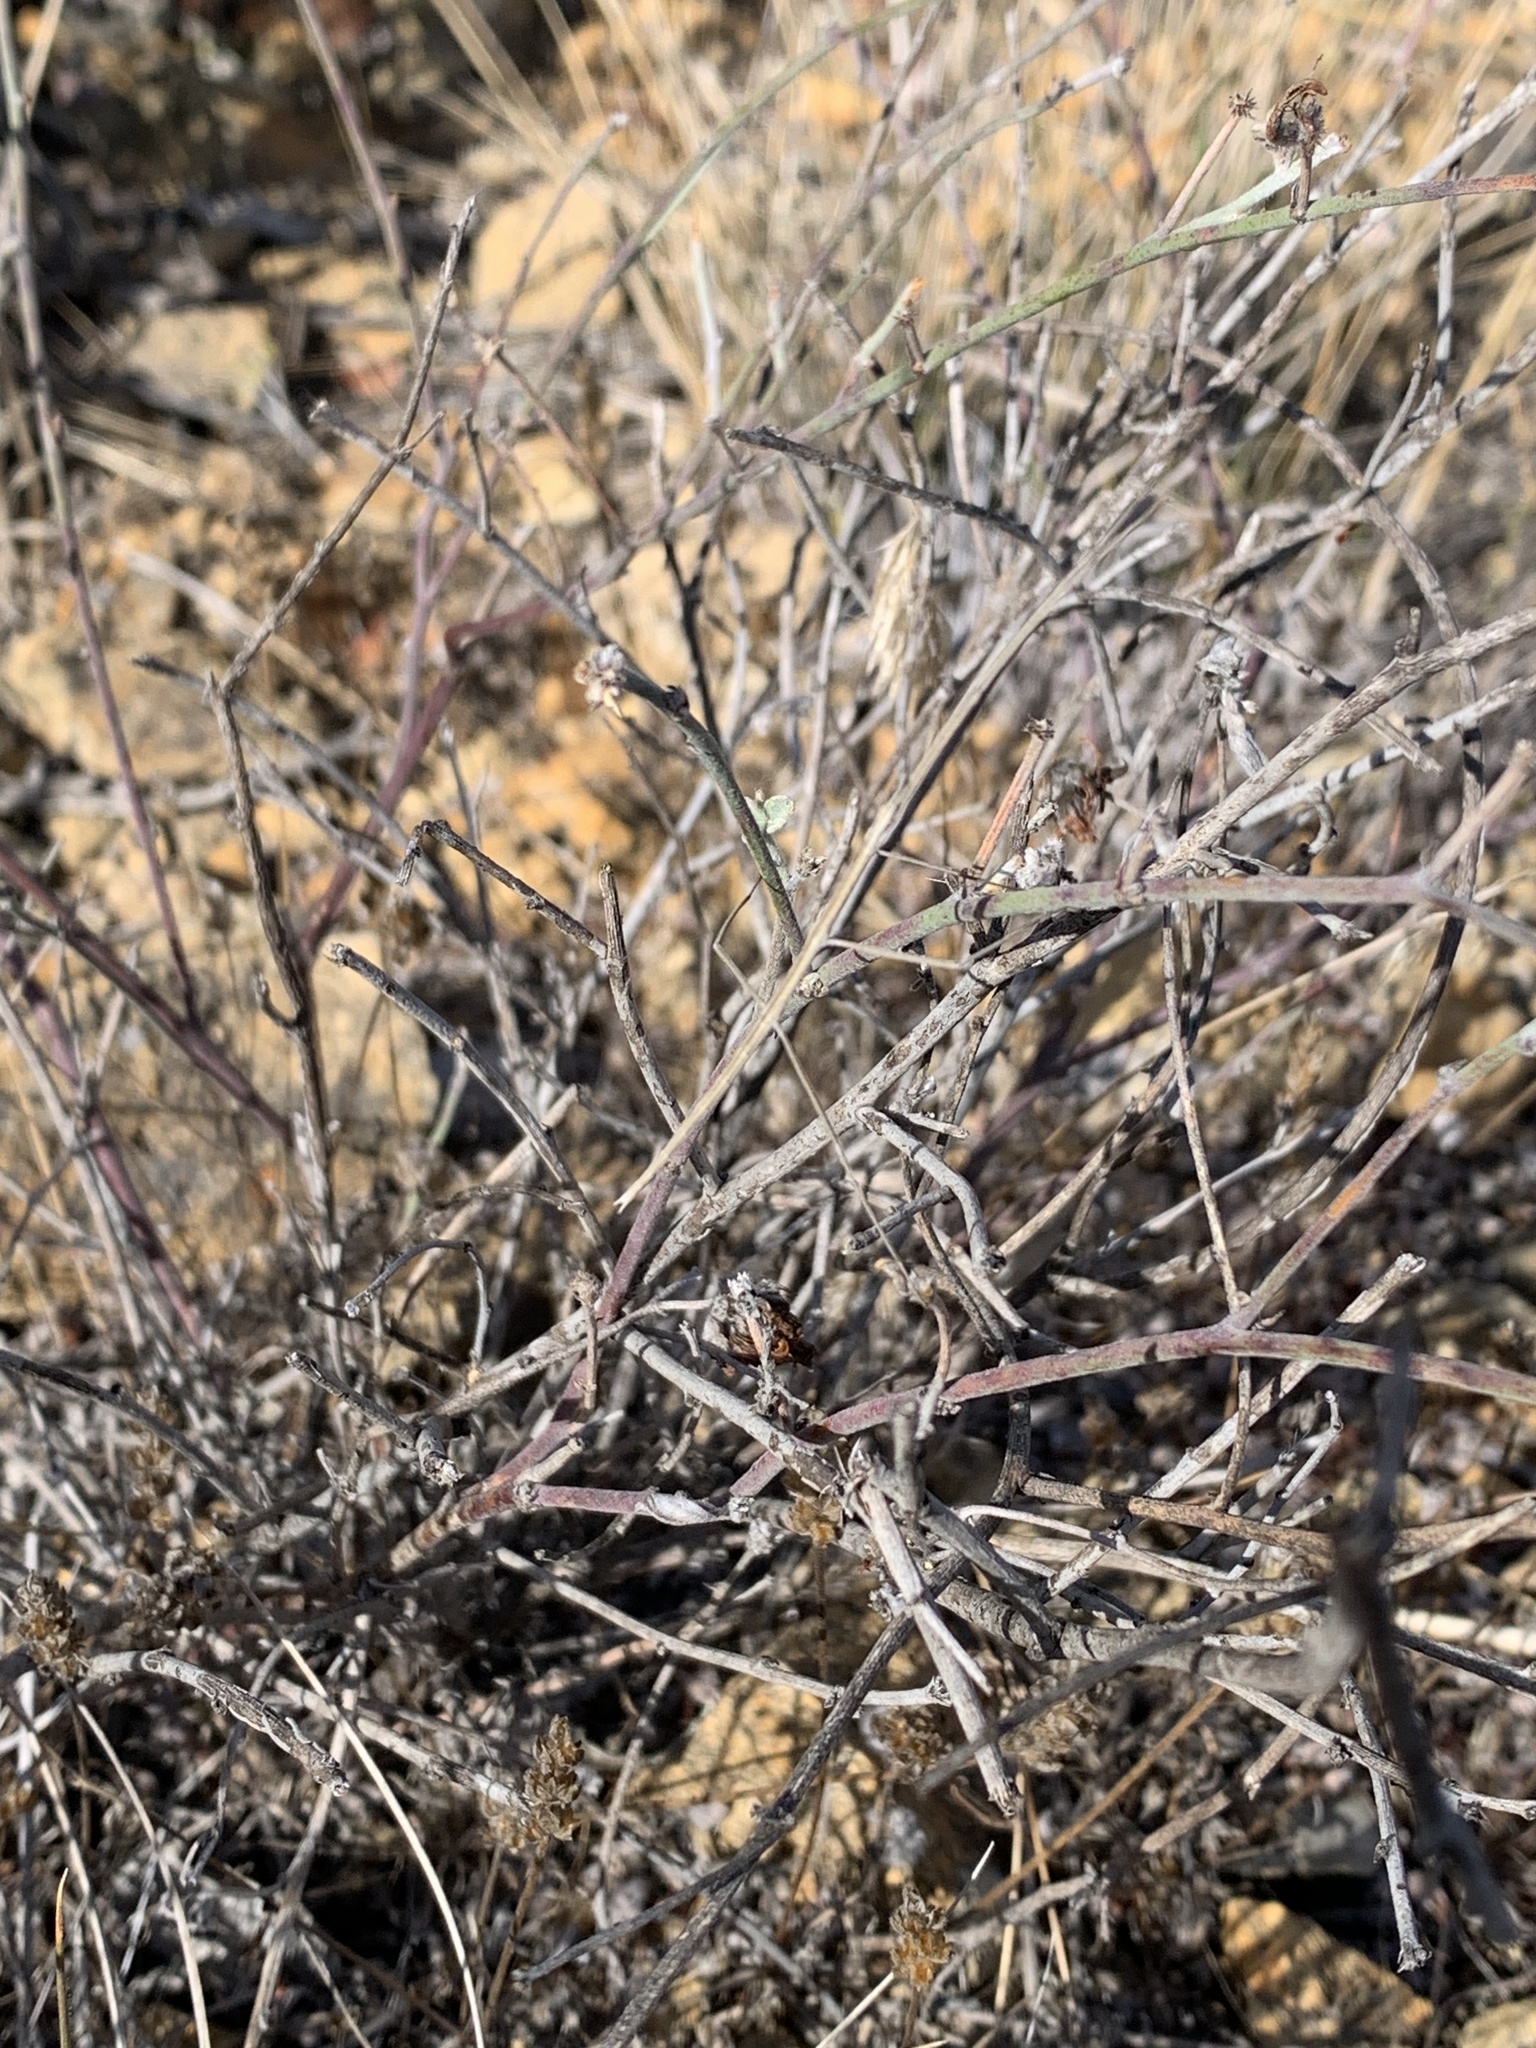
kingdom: Animalia
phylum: Arthropoda
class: Insecta
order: Phasmida
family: Diapheromeridae
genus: Pseudosermyle
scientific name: Pseudosermyle catalinae
